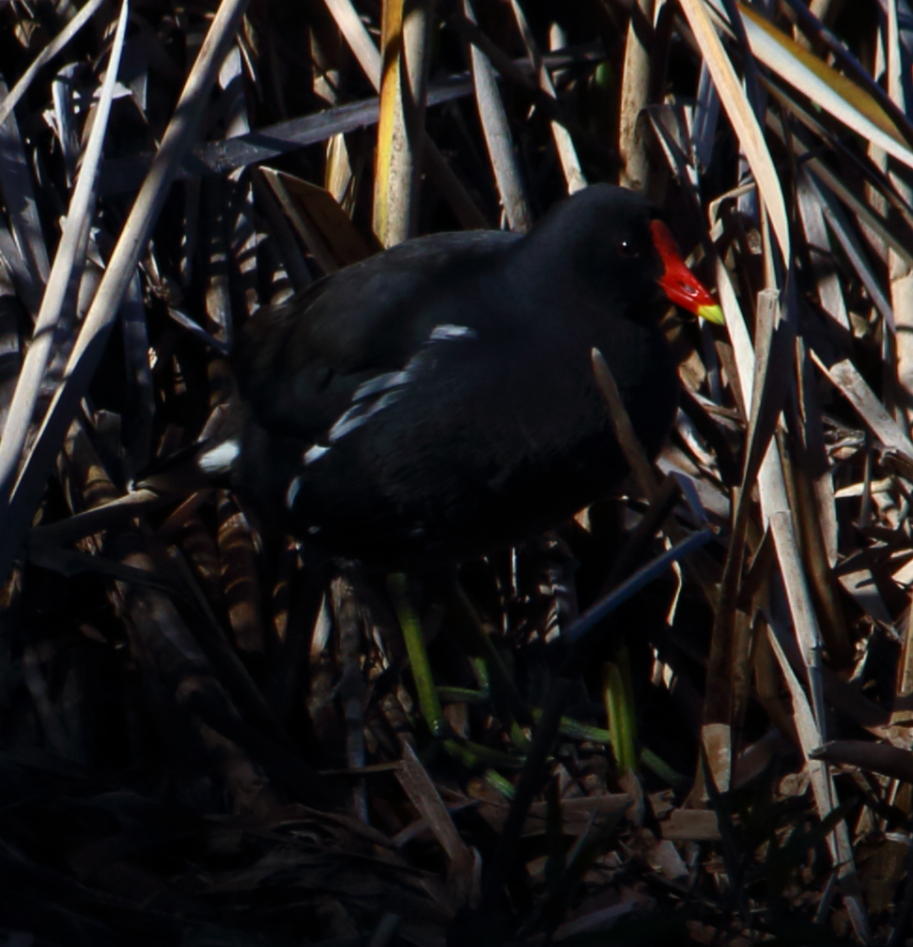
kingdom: Animalia
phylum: Chordata
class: Aves
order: Gruiformes
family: Rallidae
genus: Gallinula
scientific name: Gallinula chloropus
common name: Common moorhen
